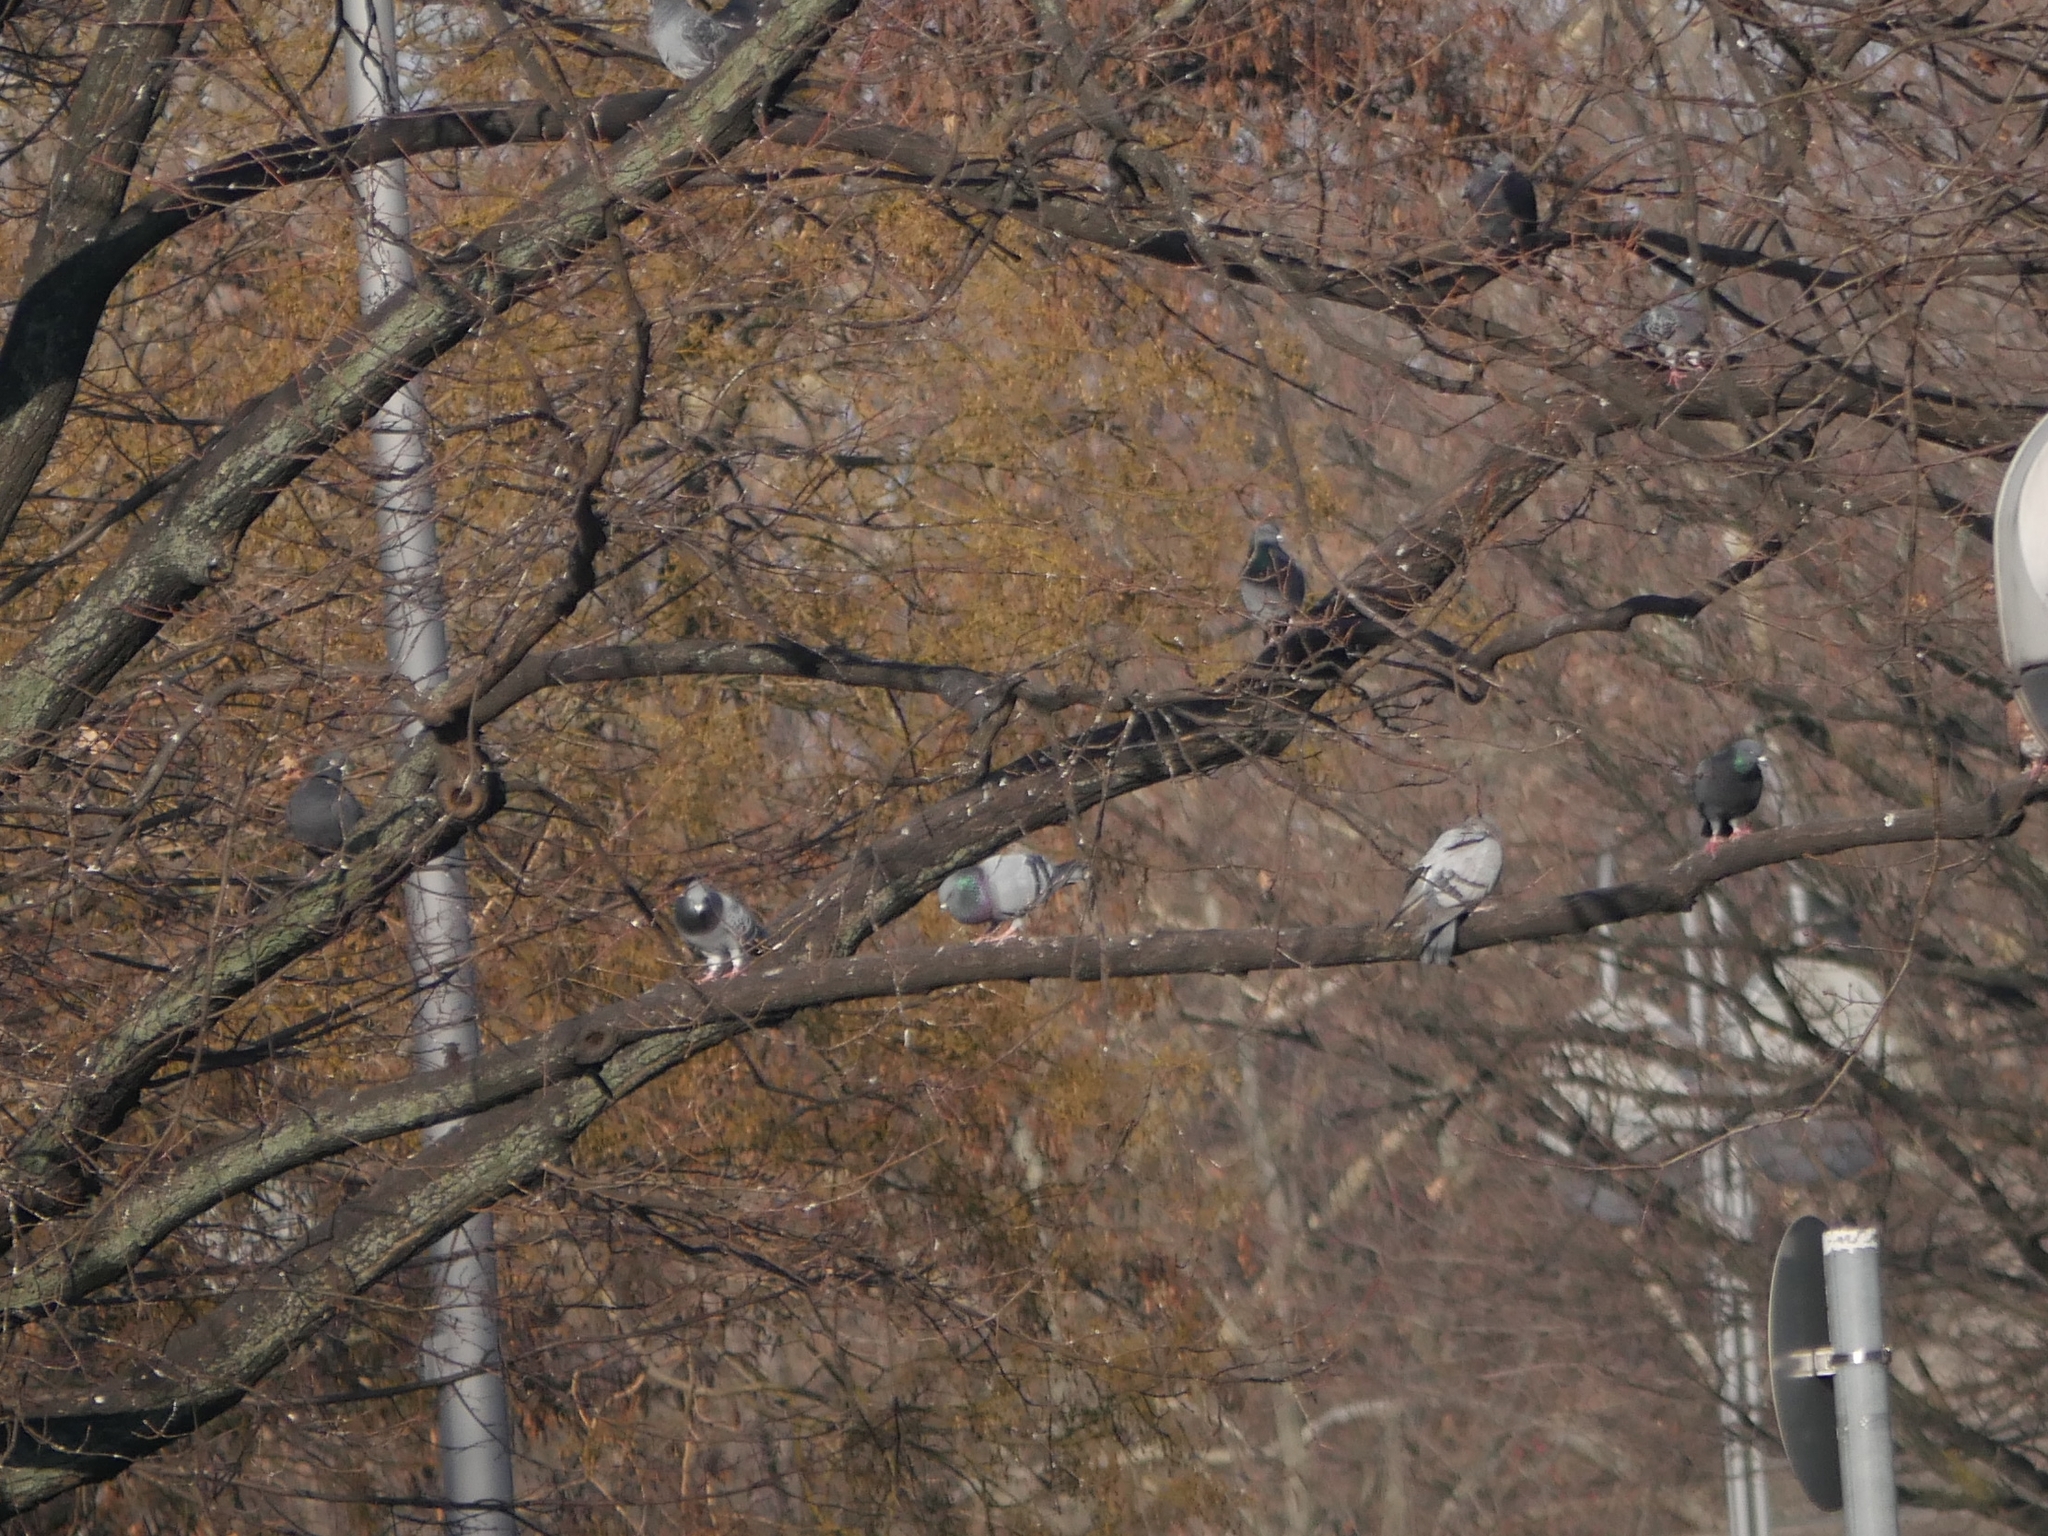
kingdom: Animalia
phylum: Chordata
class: Aves
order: Columbiformes
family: Columbidae
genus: Columba
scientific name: Columba livia
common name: Rock pigeon
